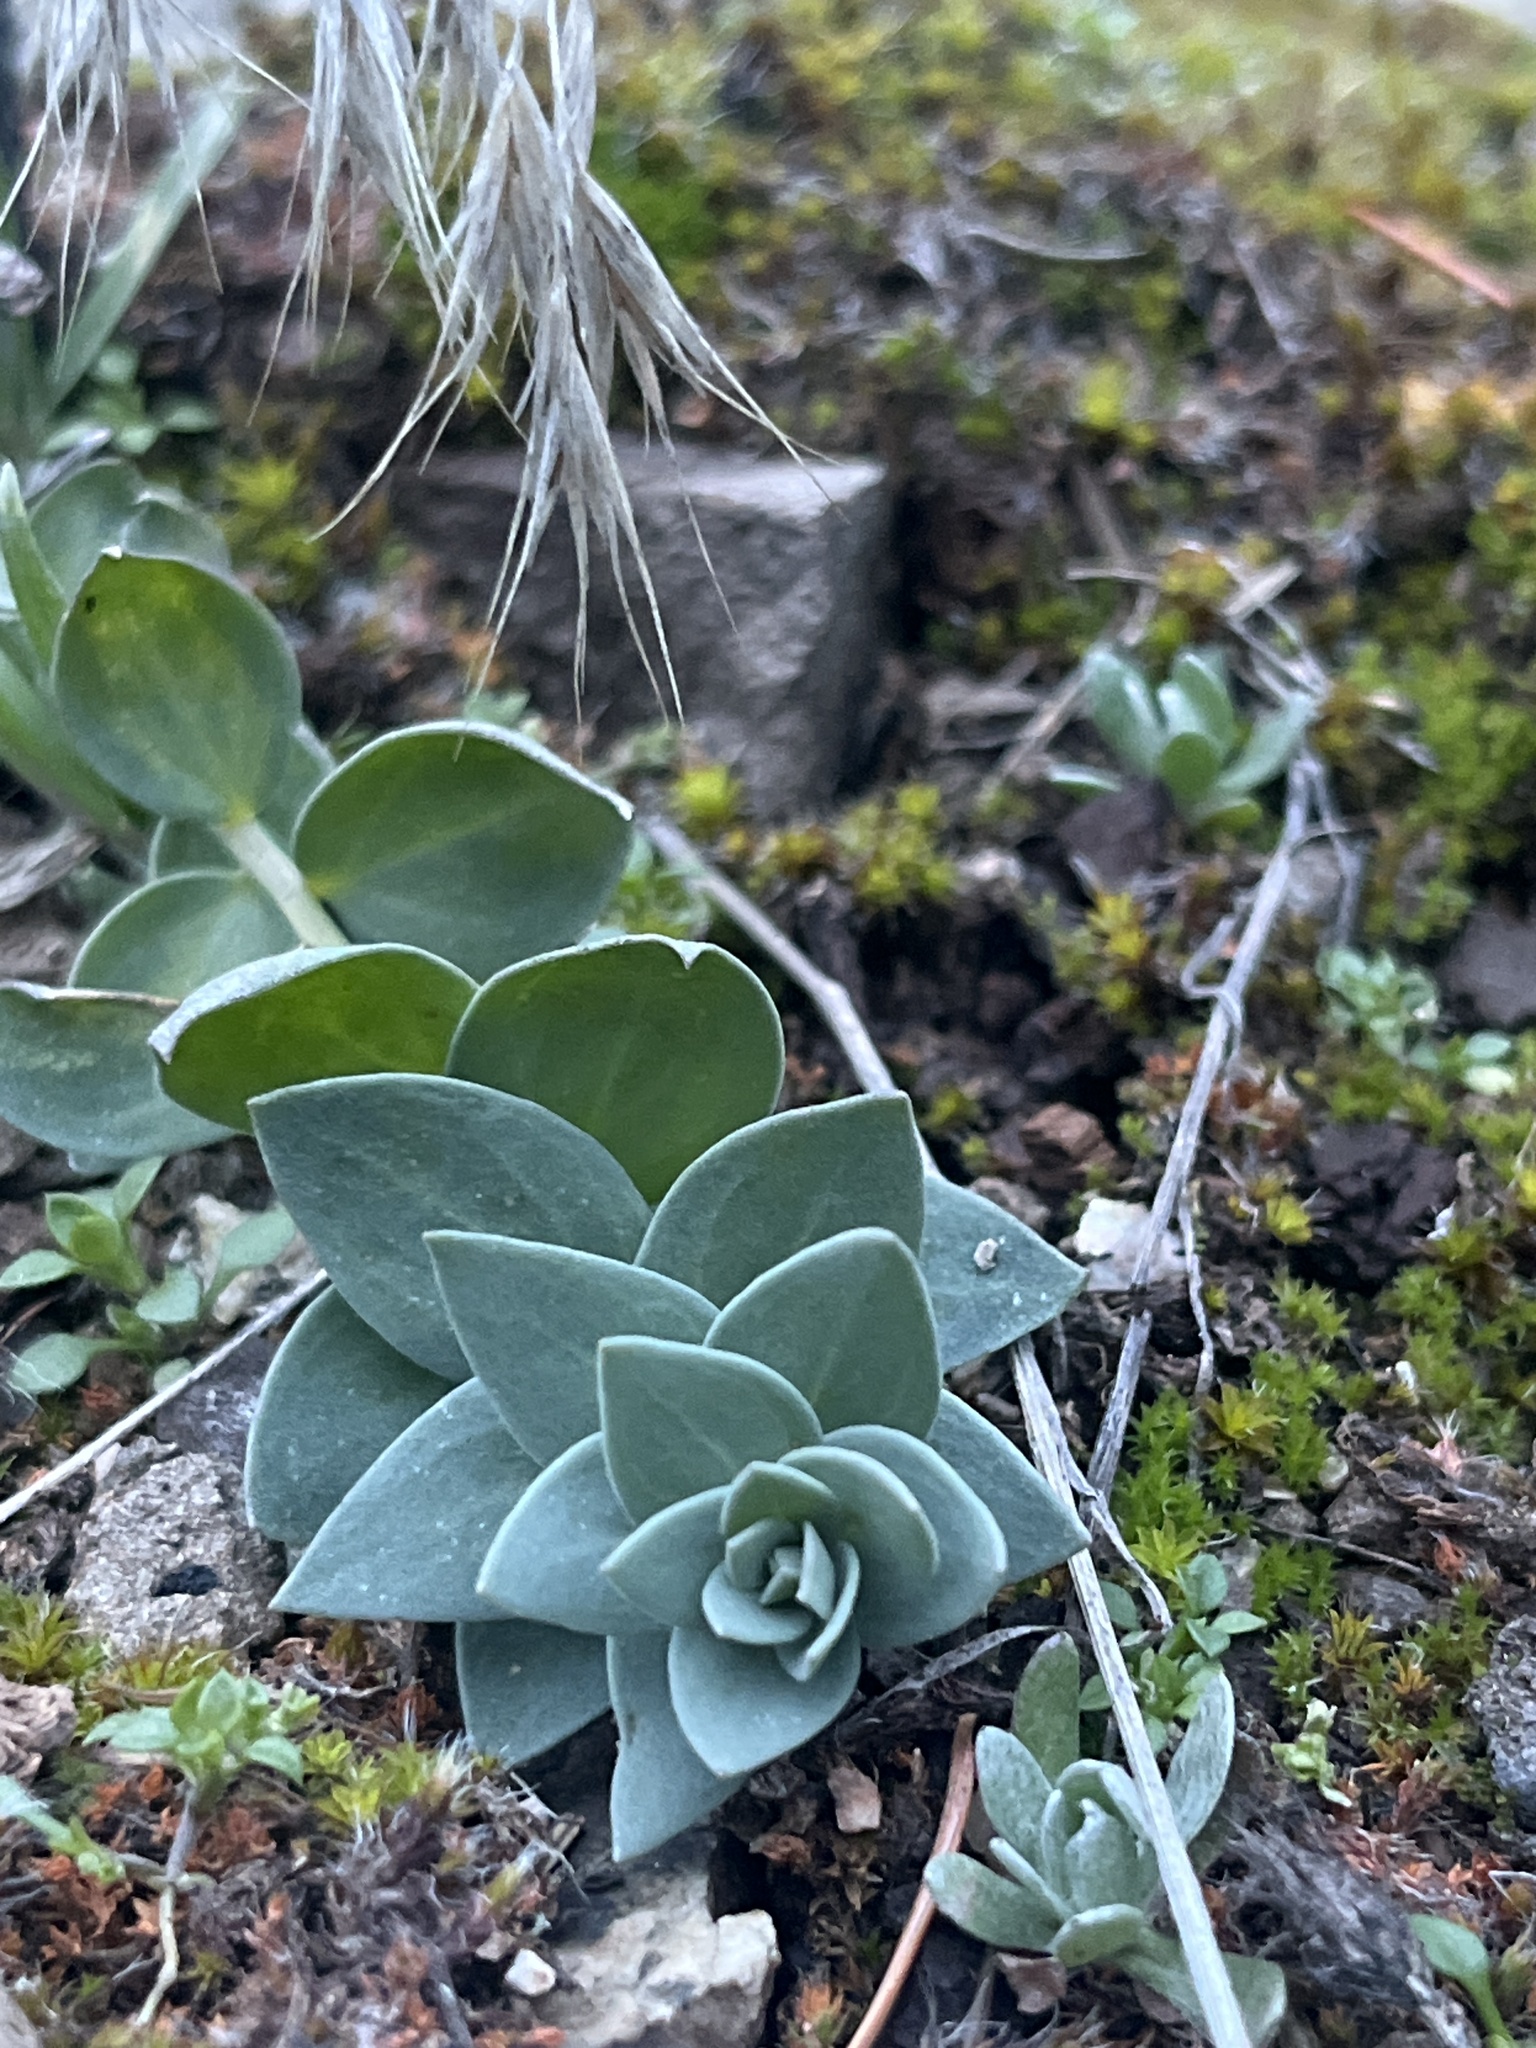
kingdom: Plantae
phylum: Tracheophyta
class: Magnoliopsida
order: Lamiales
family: Plantaginaceae
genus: Linaria
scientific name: Linaria dalmatica
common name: Dalmatian toadflax
